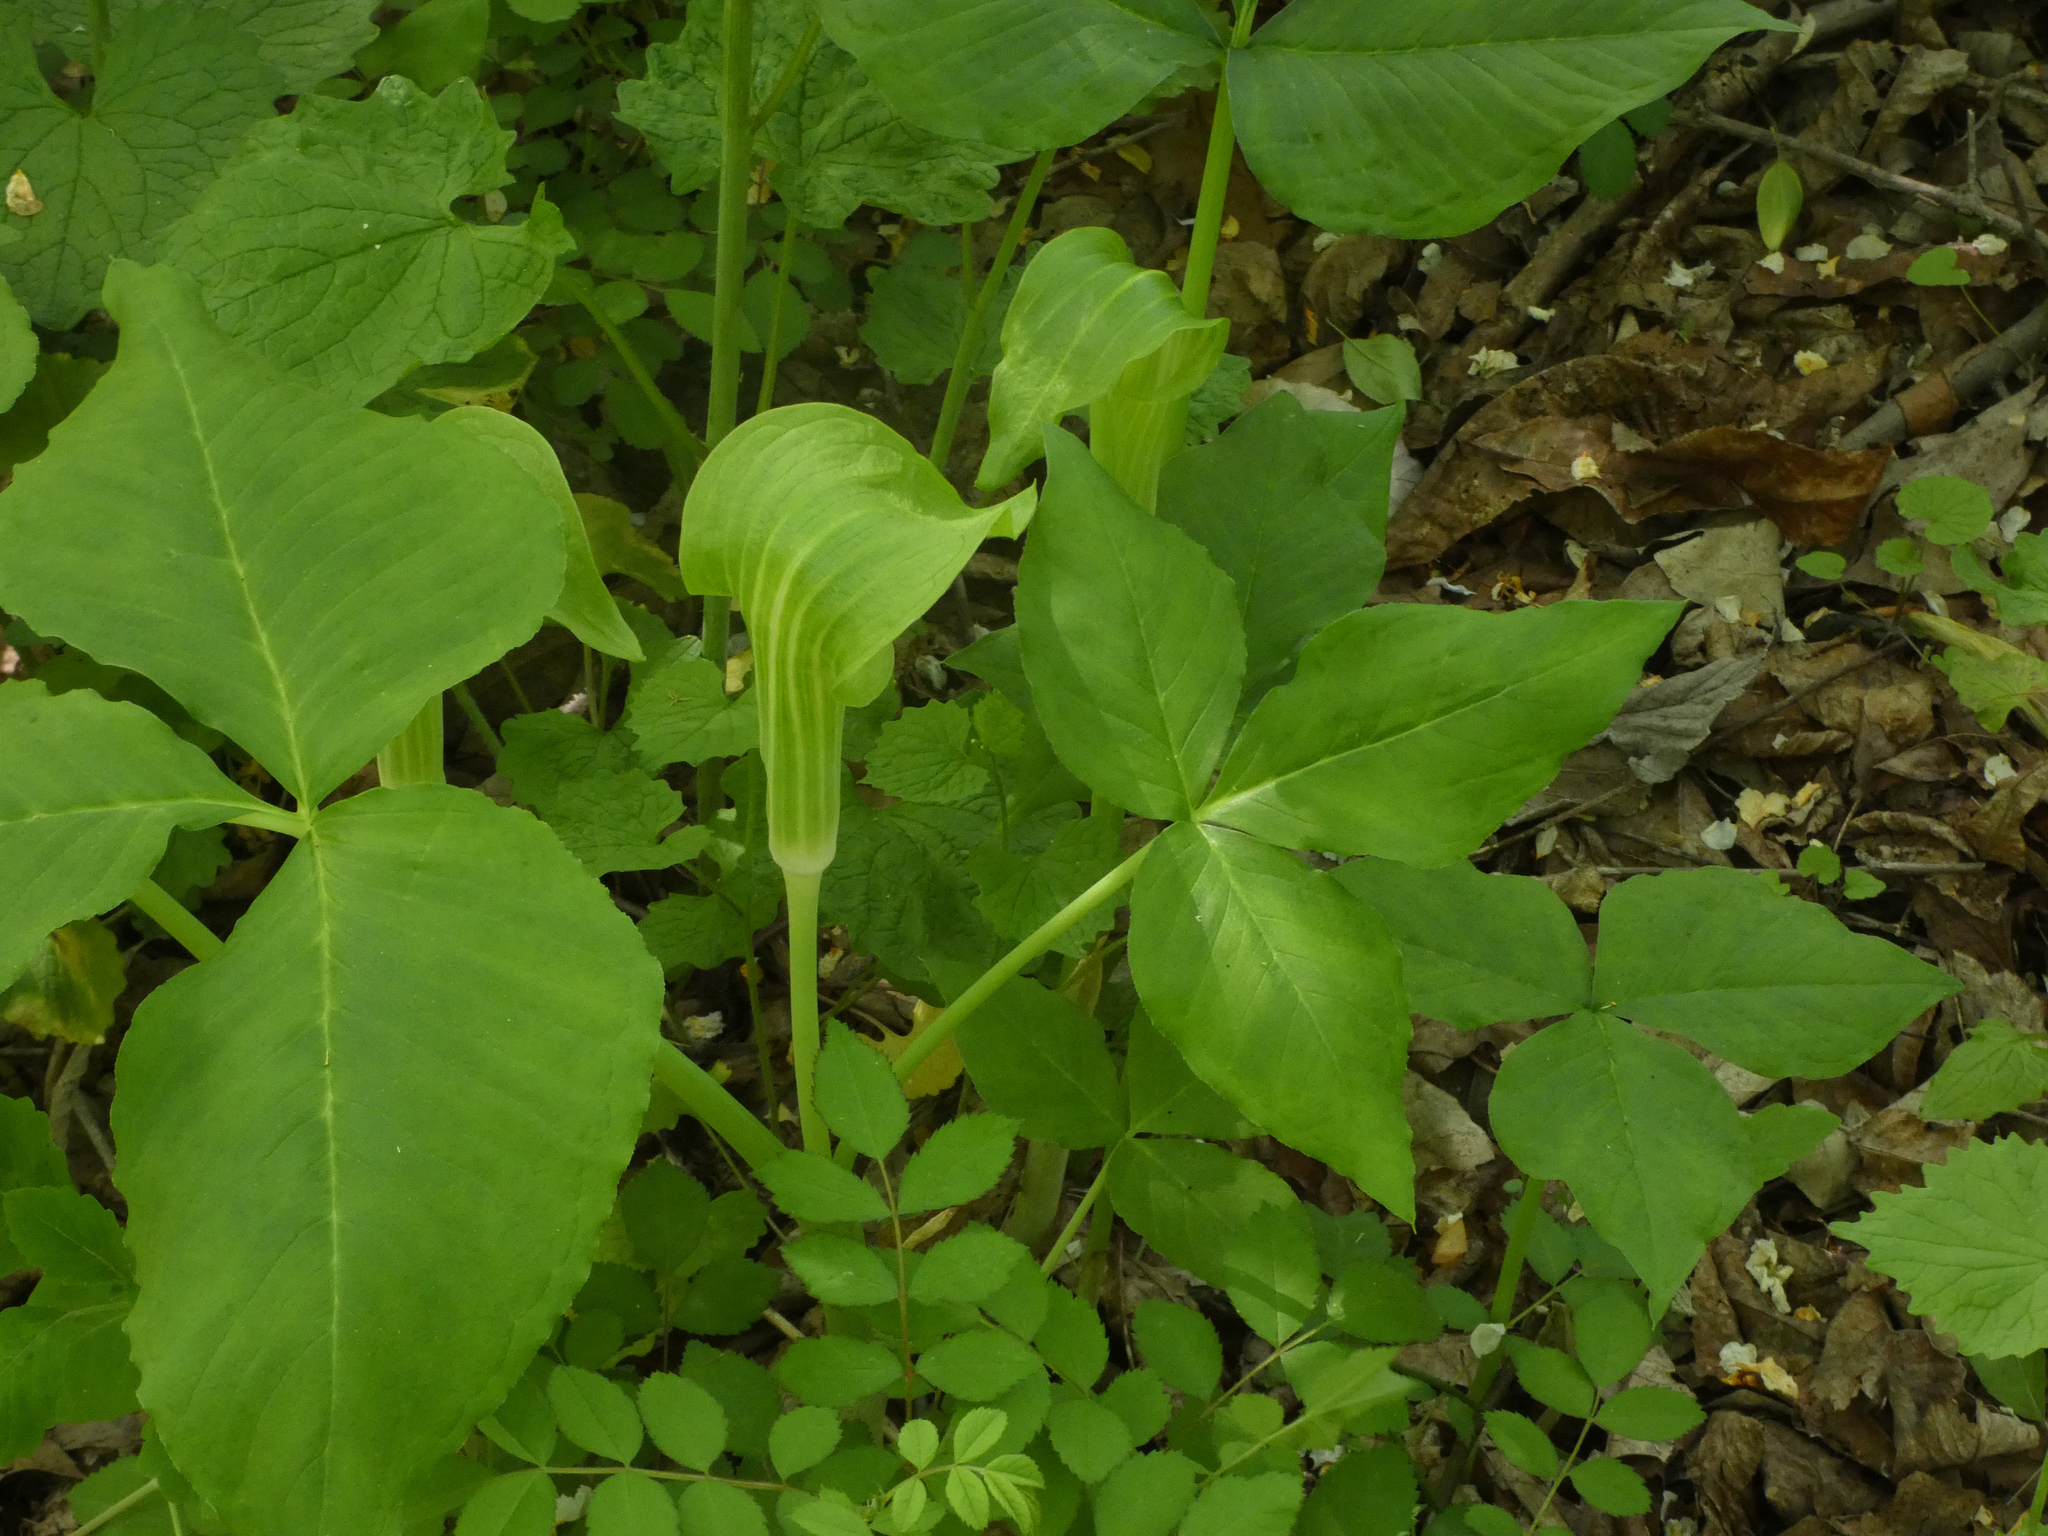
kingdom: Plantae
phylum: Tracheophyta
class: Liliopsida
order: Alismatales
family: Araceae
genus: Arisaema
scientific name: Arisaema triphyllum
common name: Jack-in-the-pulpit
